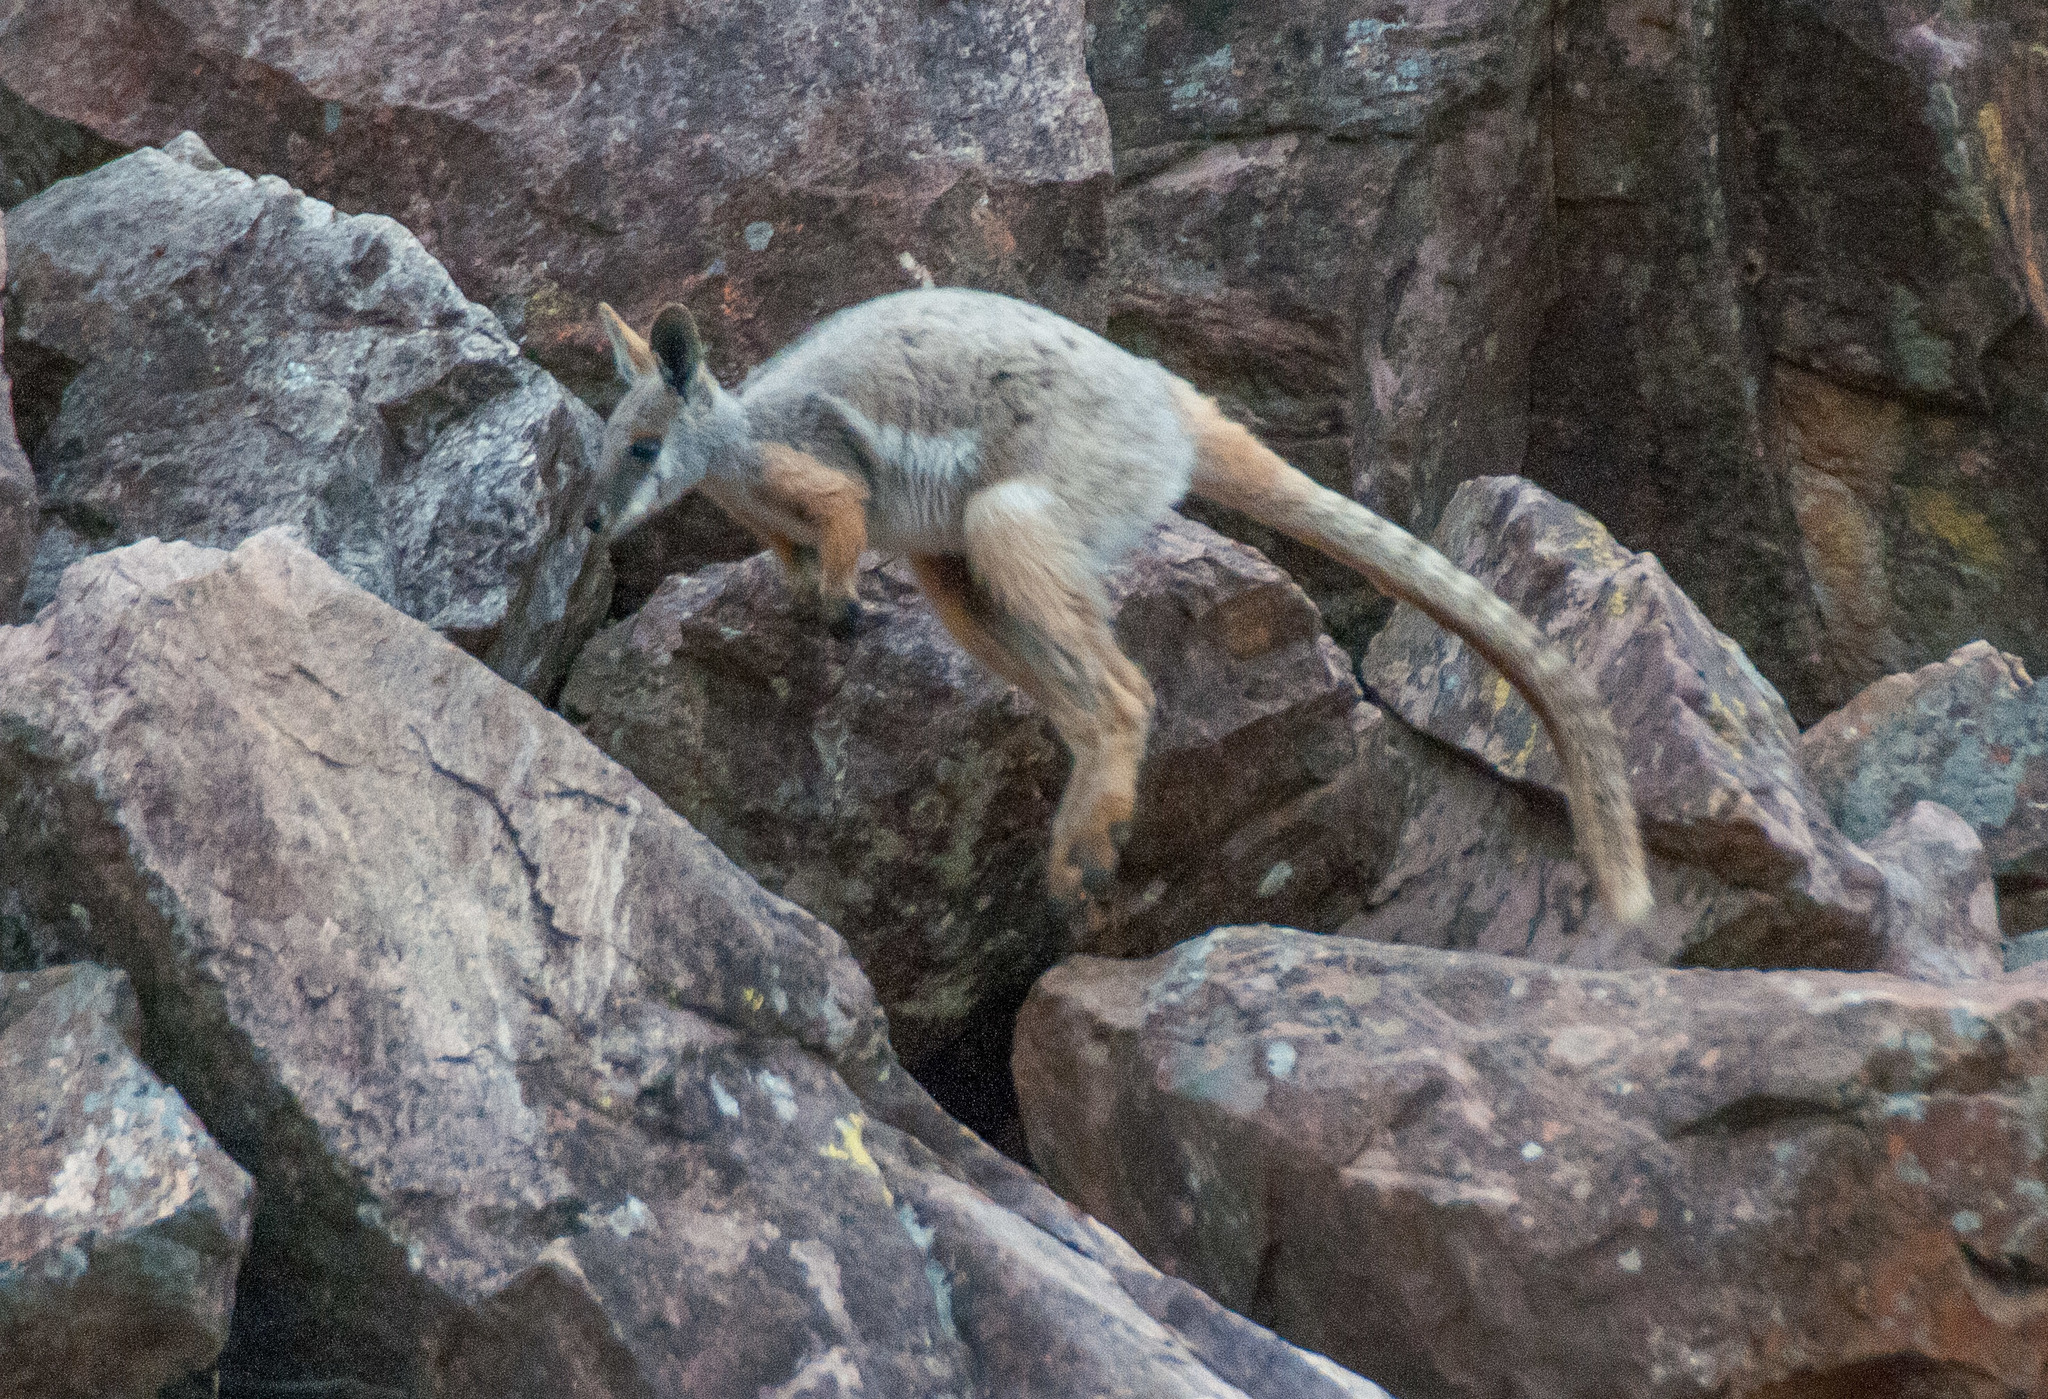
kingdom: Animalia
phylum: Chordata
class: Mammalia
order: Diprotodontia
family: Macropodidae
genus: Petrogale
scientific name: Petrogale xanthopus
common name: Yellow-footed rock-wallaby
